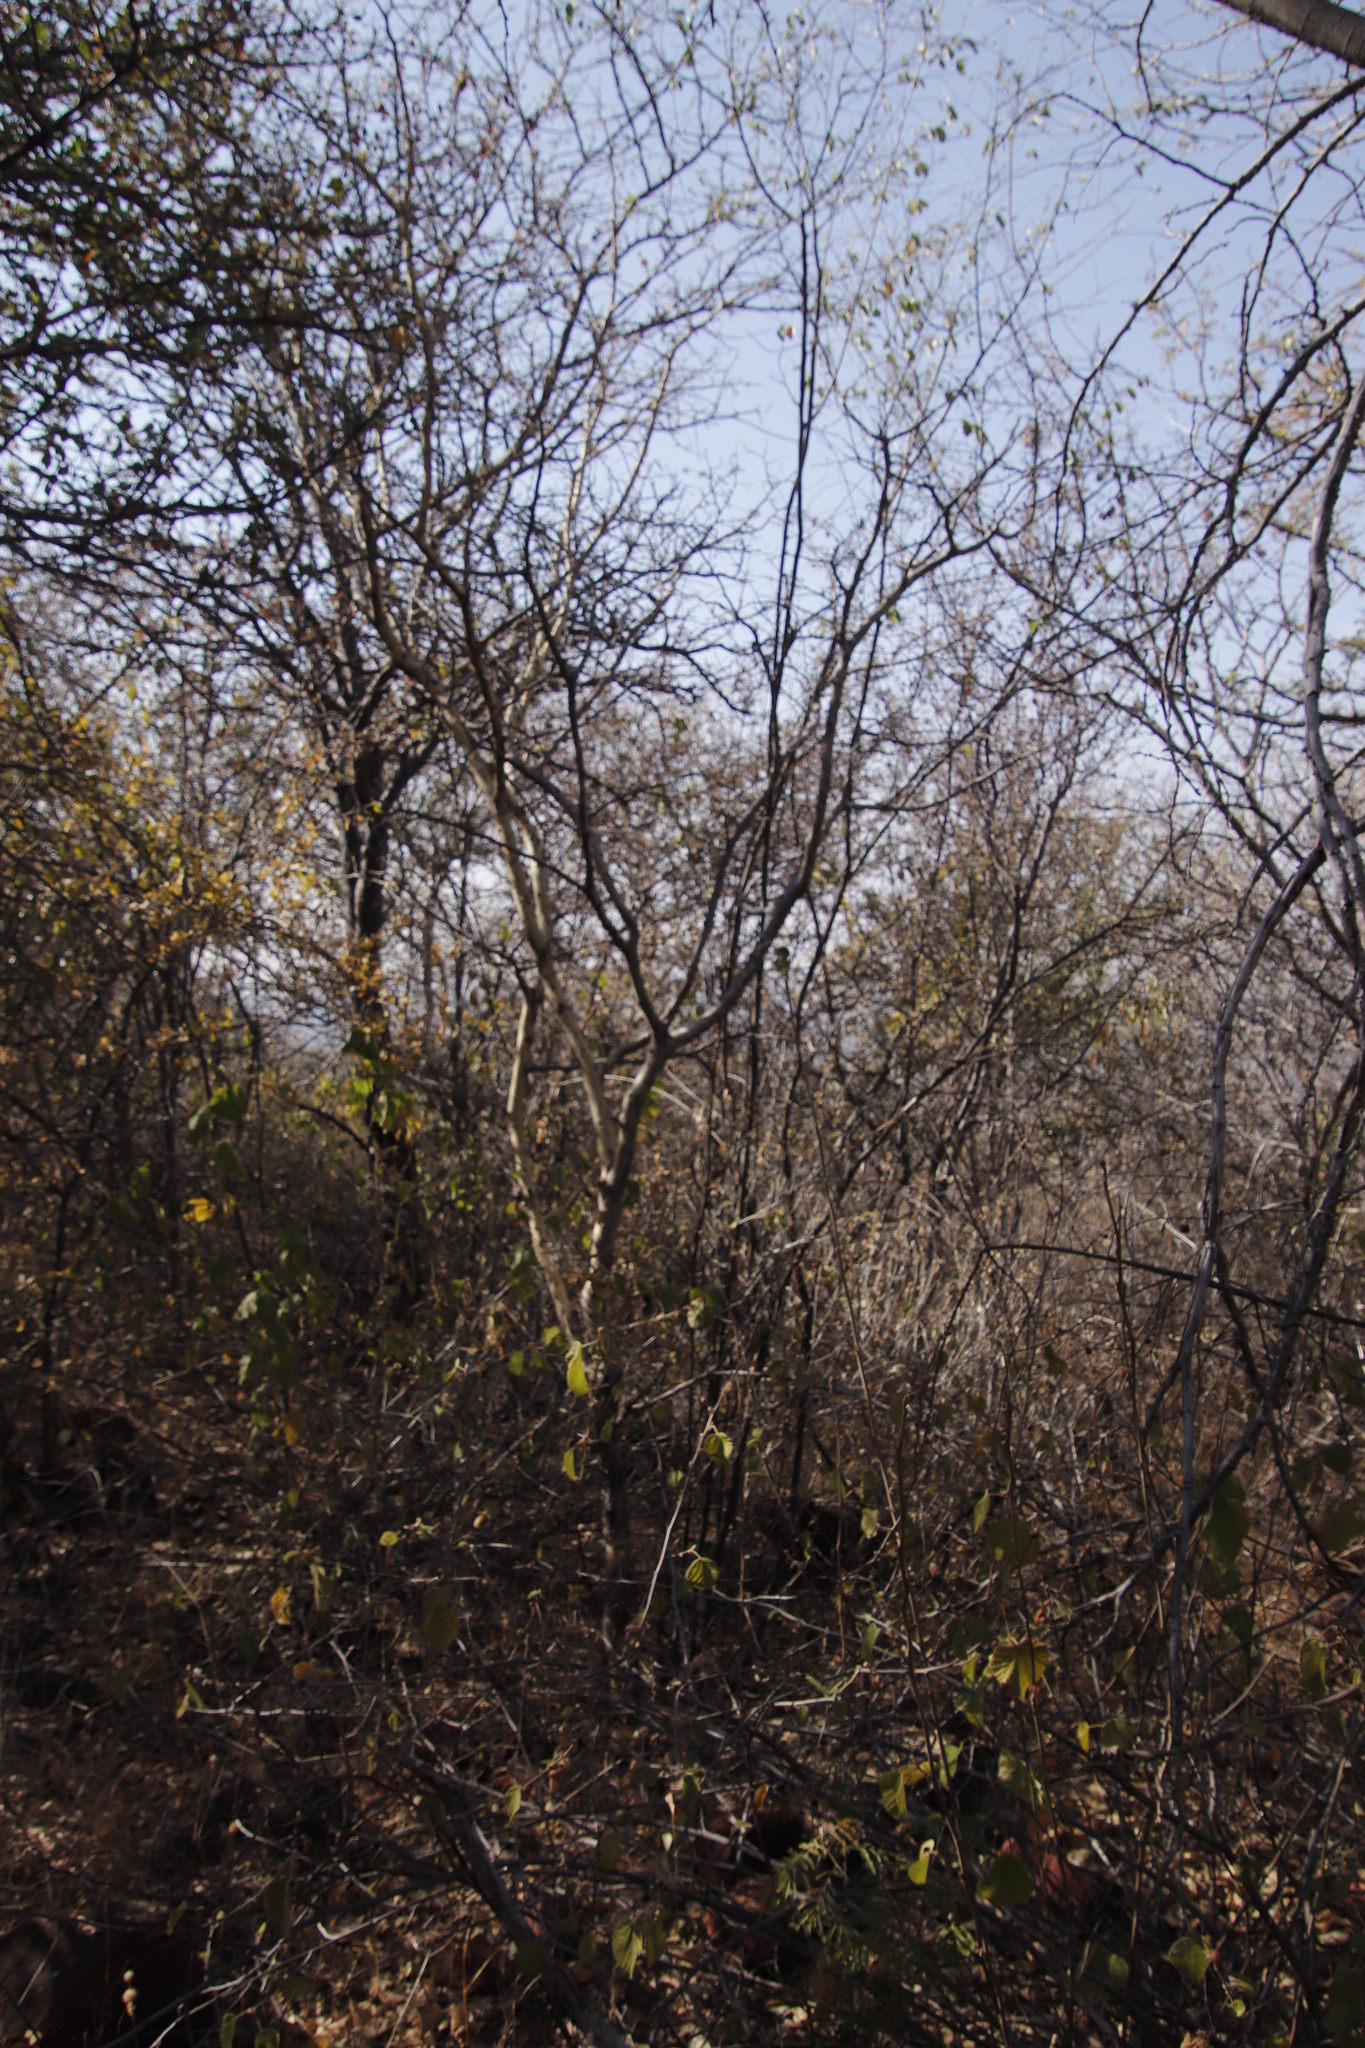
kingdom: Plantae
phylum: Tracheophyta
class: Magnoliopsida
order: Malvales
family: Malvaceae
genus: Grewia
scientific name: Grewia bicolor
